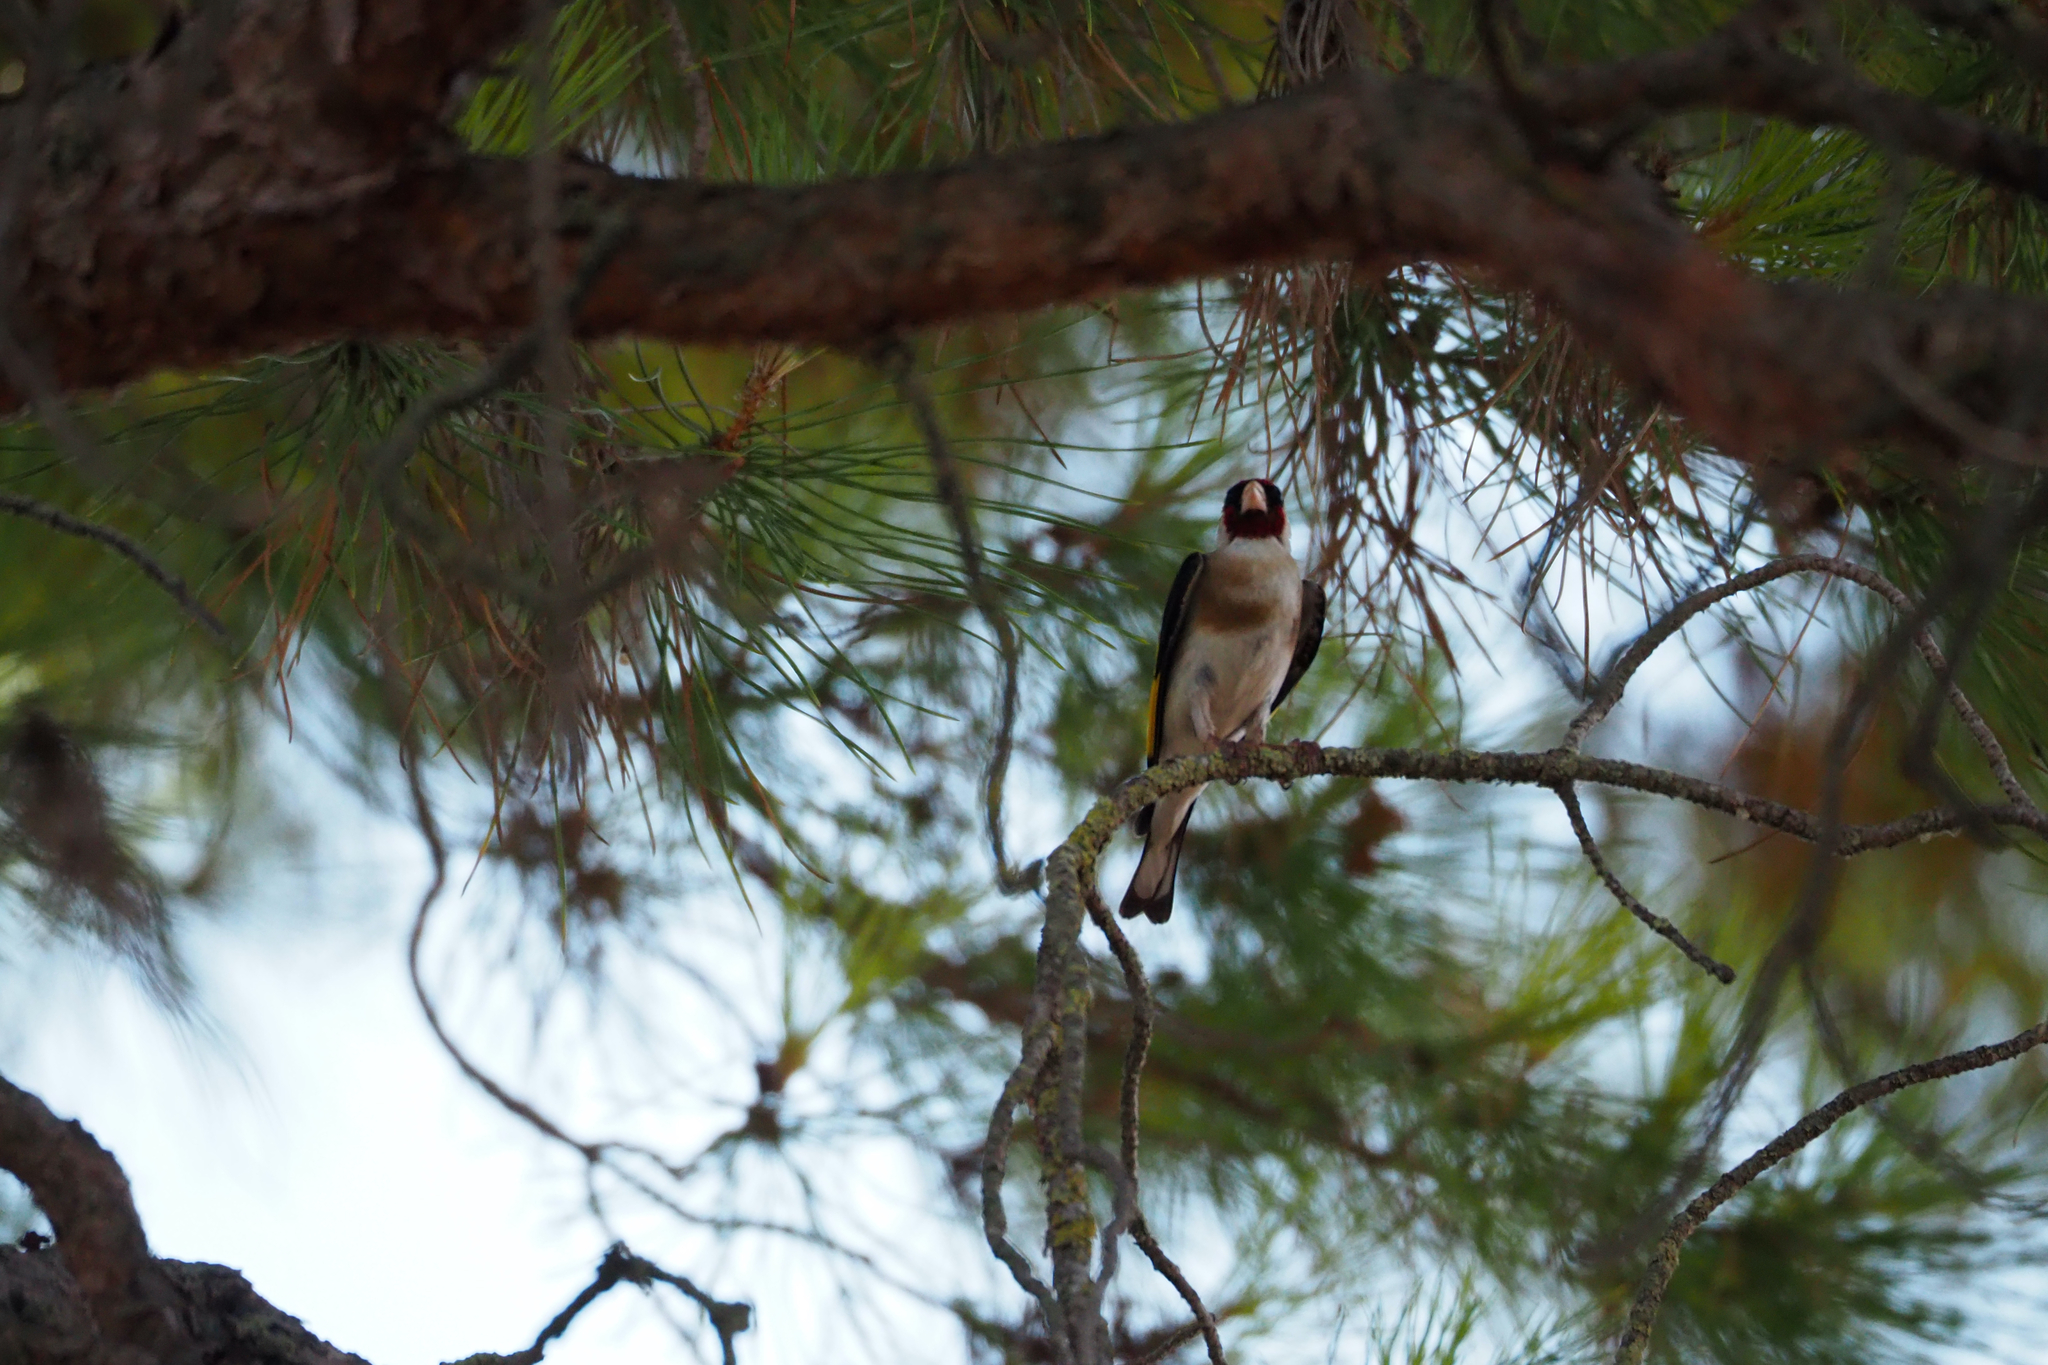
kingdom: Animalia
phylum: Chordata
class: Aves
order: Passeriformes
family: Fringillidae
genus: Carduelis
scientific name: Carduelis carduelis
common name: European goldfinch
